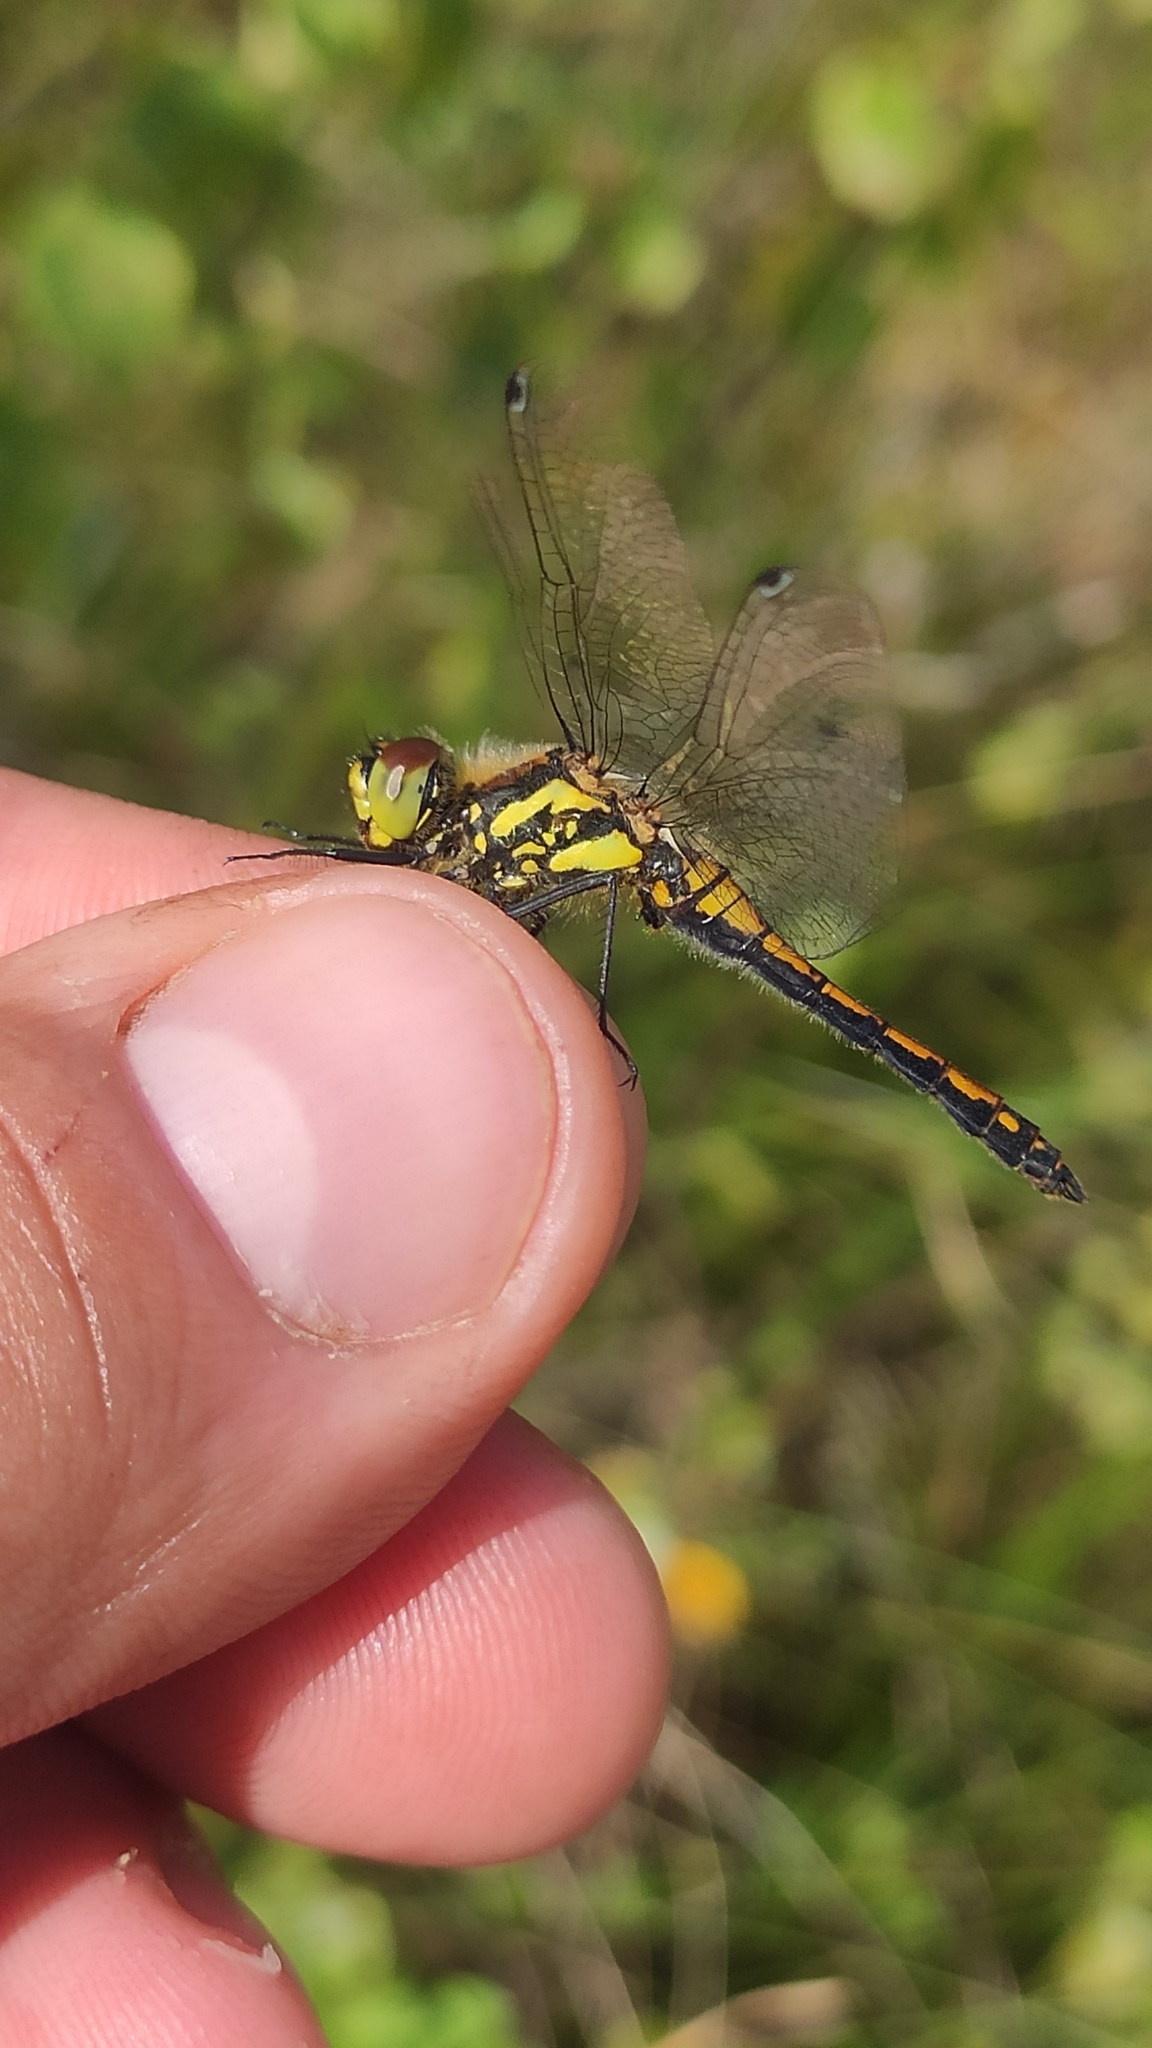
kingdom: Animalia
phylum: Arthropoda
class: Insecta
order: Odonata
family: Libellulidae
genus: Sympetrum
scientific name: Sympetrum danae
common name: Black darter
